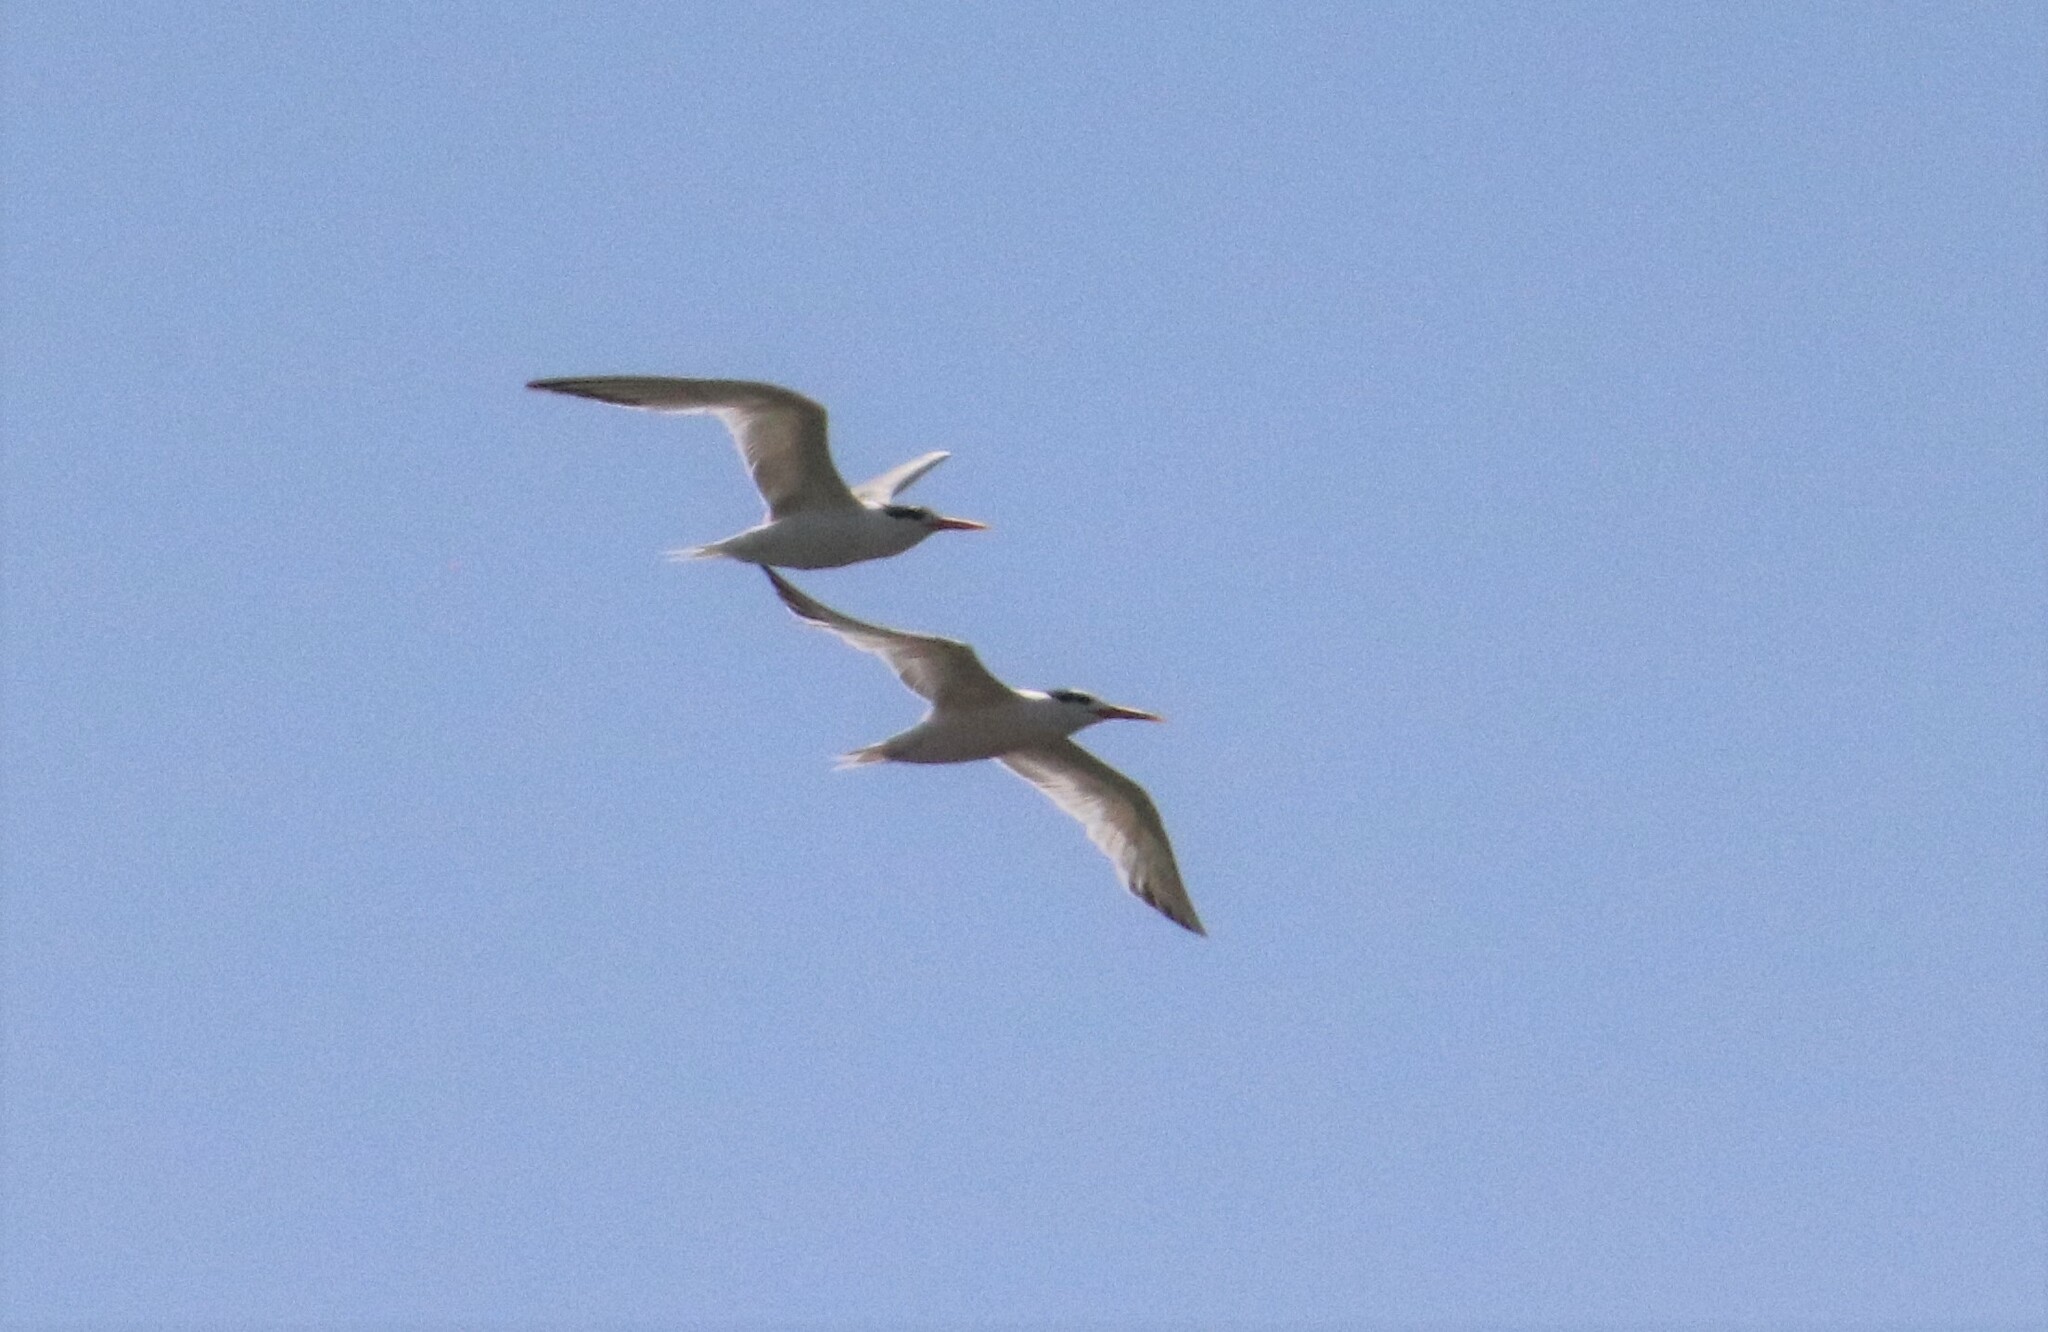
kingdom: Animalia
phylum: Chordata
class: Aves
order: Charadriiformes
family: Laridae
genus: Thalasseus
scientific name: Thalasseus maximus
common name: Royal tern
